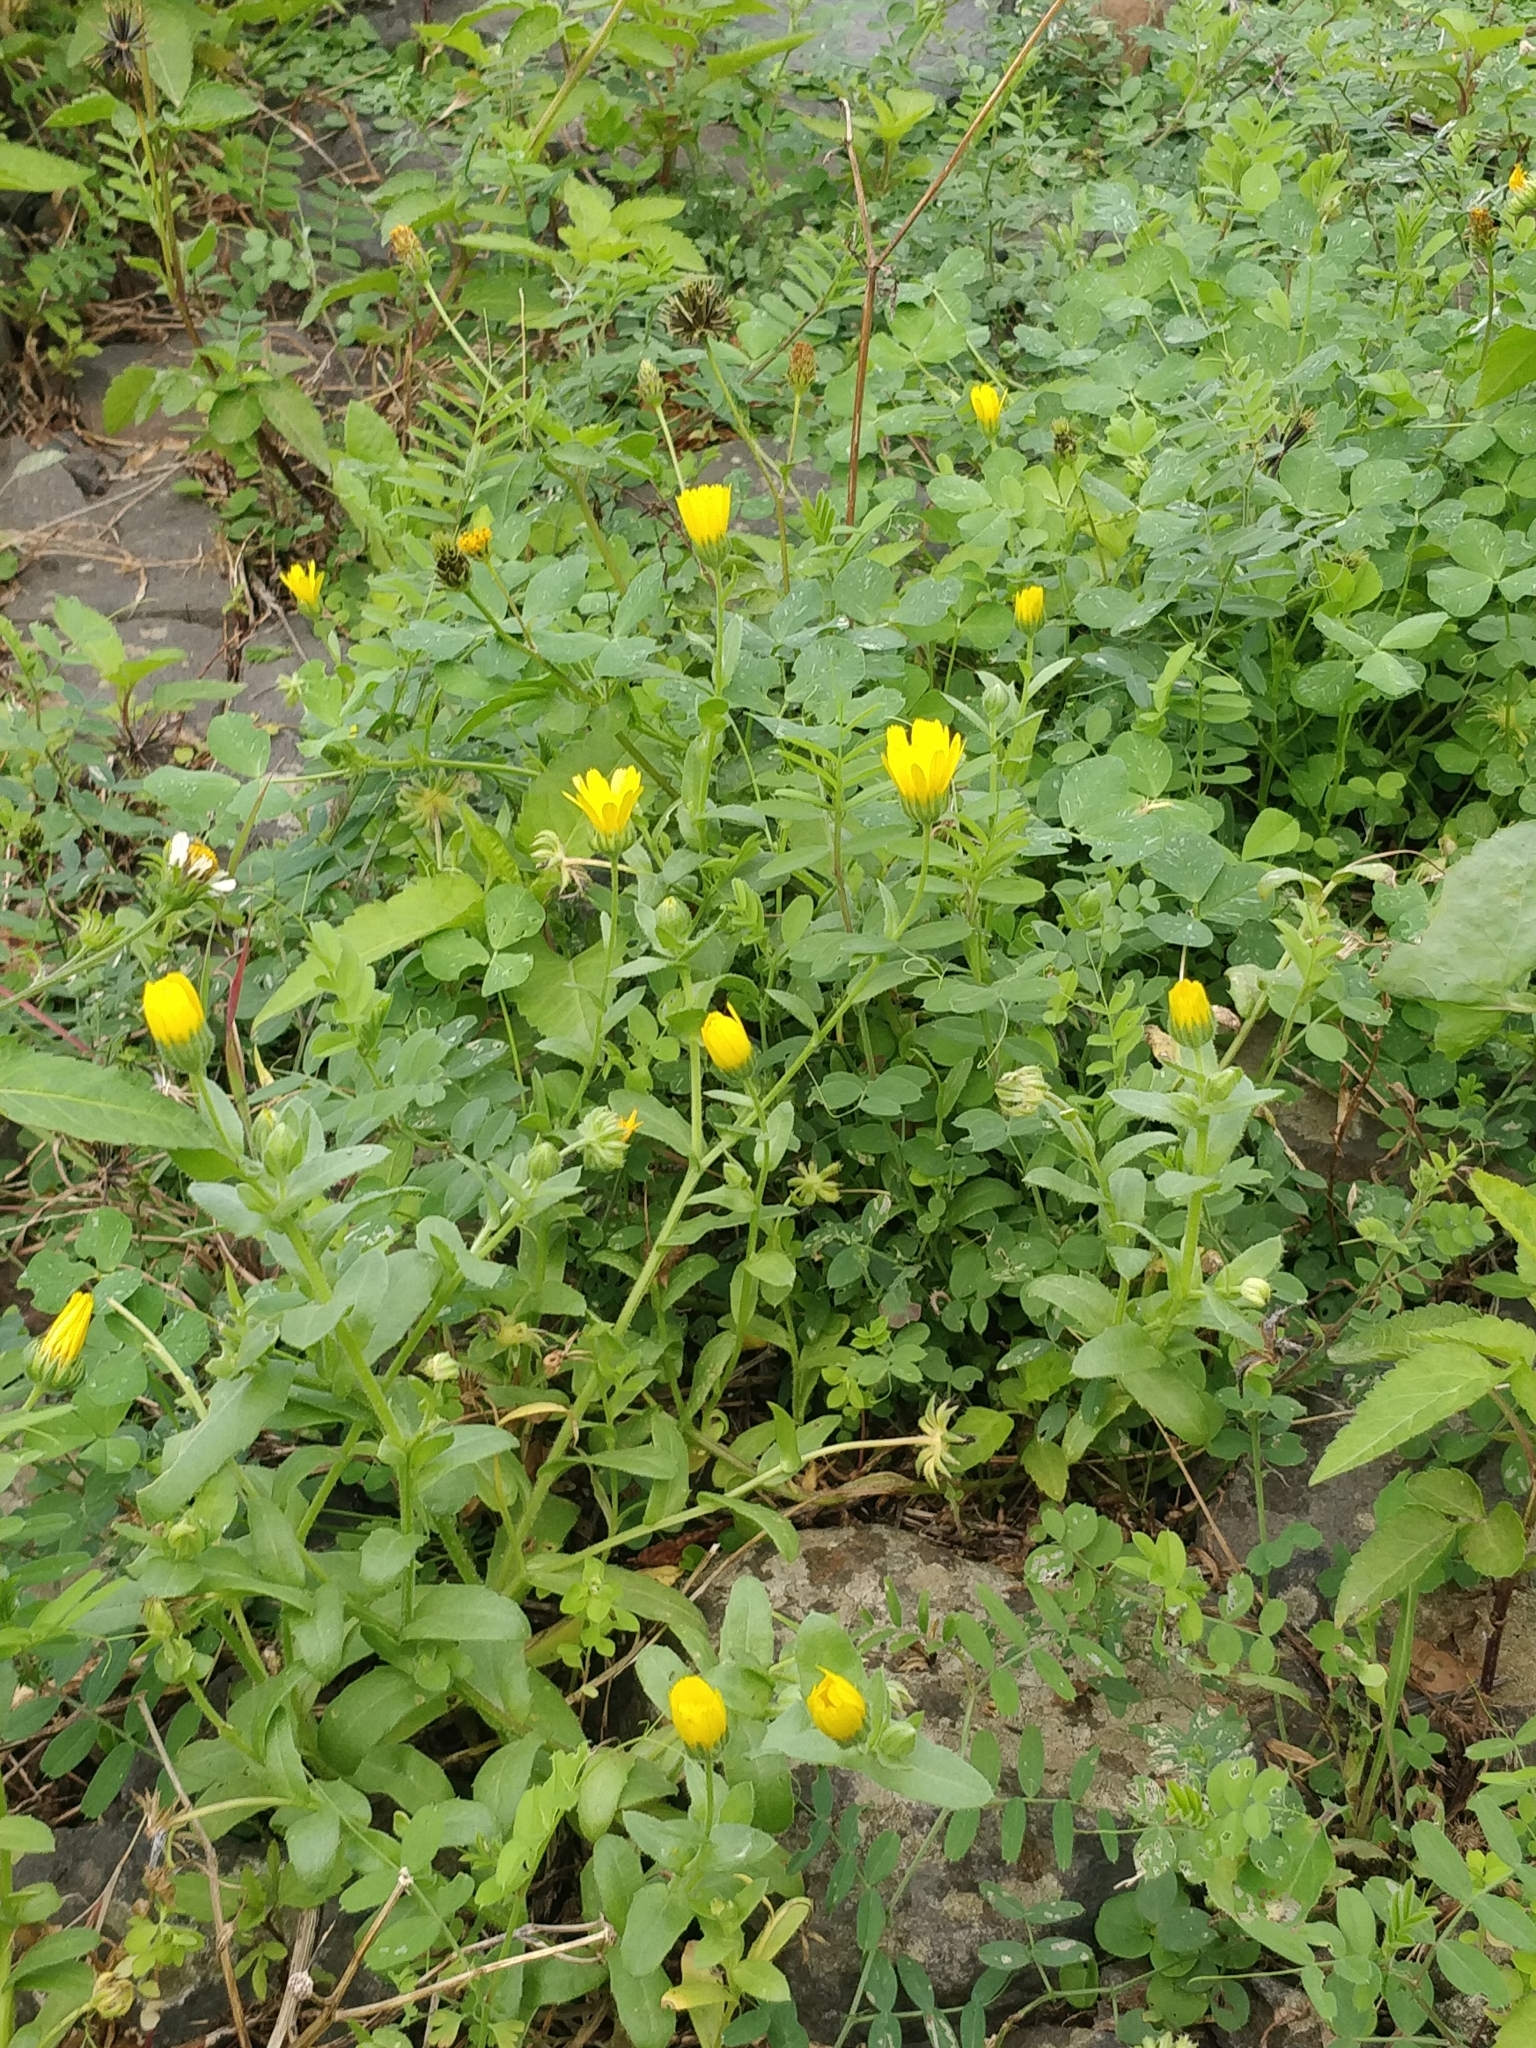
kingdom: Plantae
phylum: Tracheophyta
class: Magnoliopsida
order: Asterales
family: Asteraceae
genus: Calendula
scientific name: Calendula arvensis
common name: Field marigold
